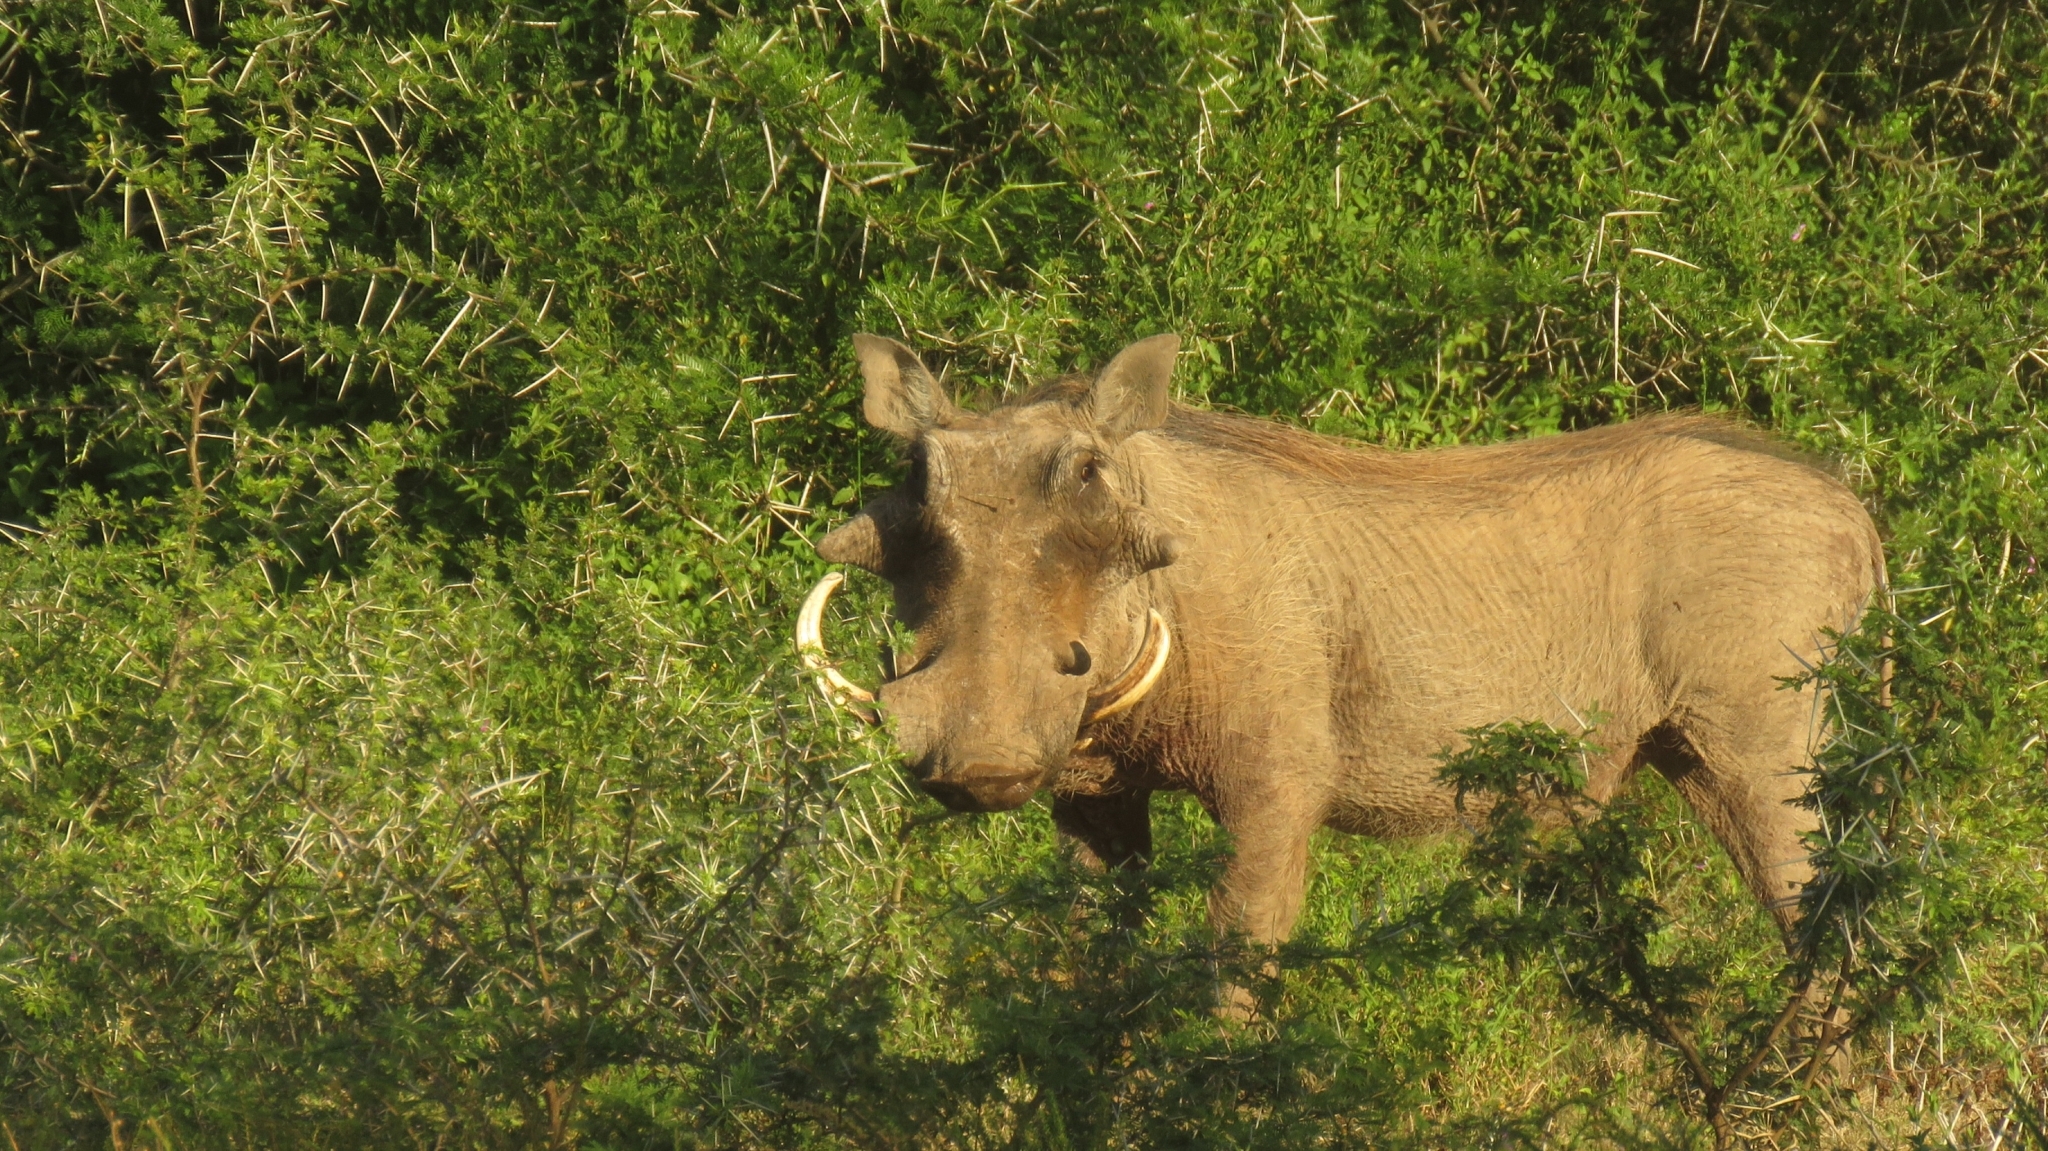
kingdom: Animalia
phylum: Chordata
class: Mammalia
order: Artiodactyla
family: Suidae
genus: Phacochoerus
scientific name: Phacochoerus africanus
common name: Common warthog
